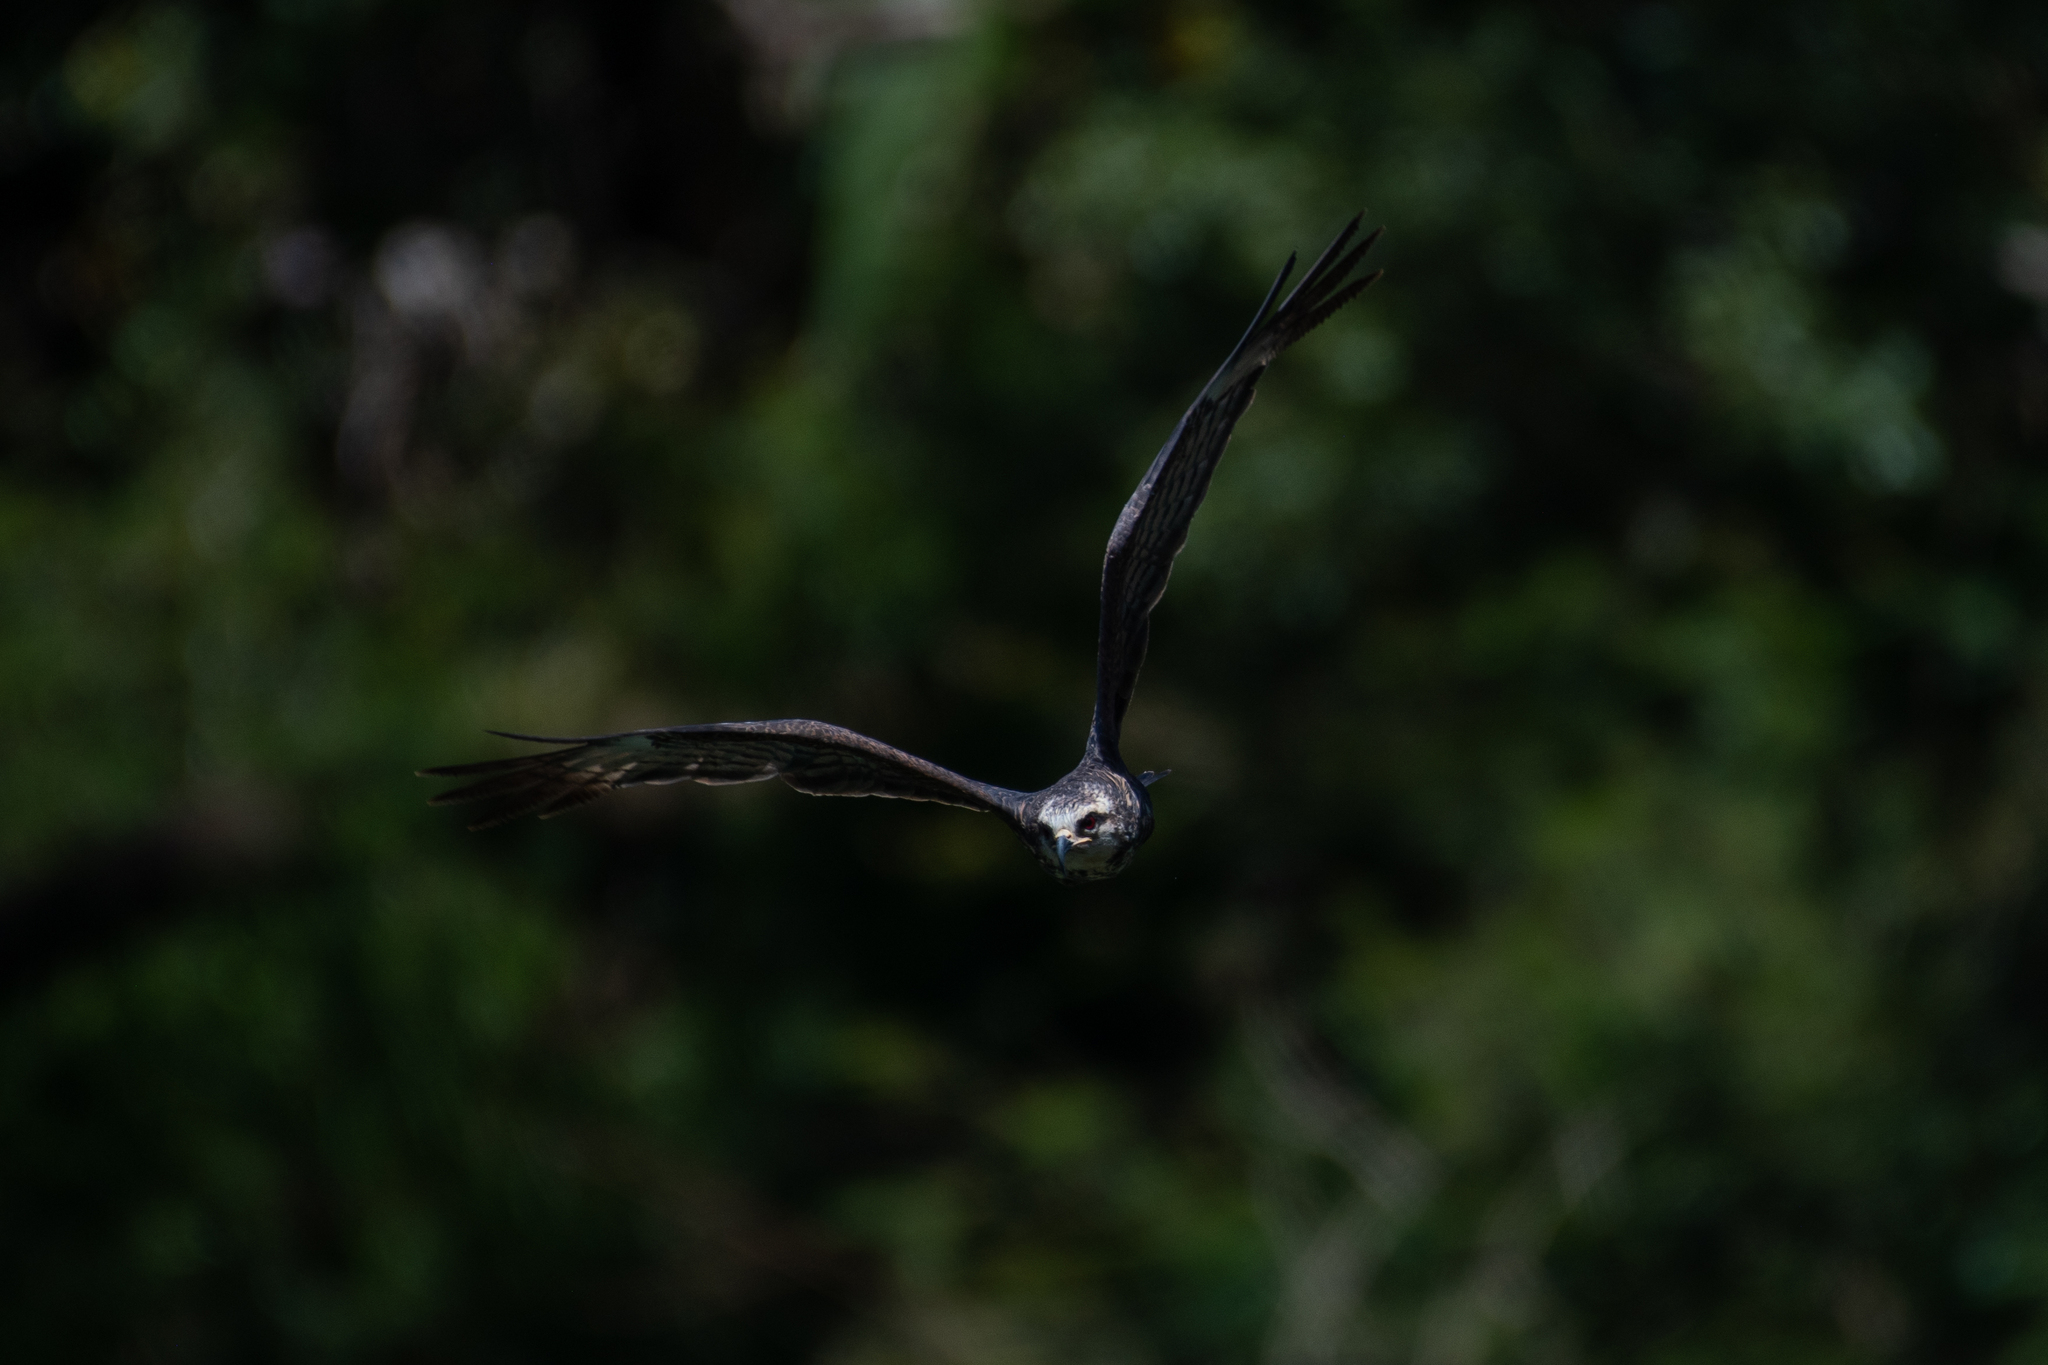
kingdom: Animalia
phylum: Chordata
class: Aves
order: Accipitriformes
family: Accipitridae
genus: Rostrhamus
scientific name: Rostrhamus sociabilis
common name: Snail kite
